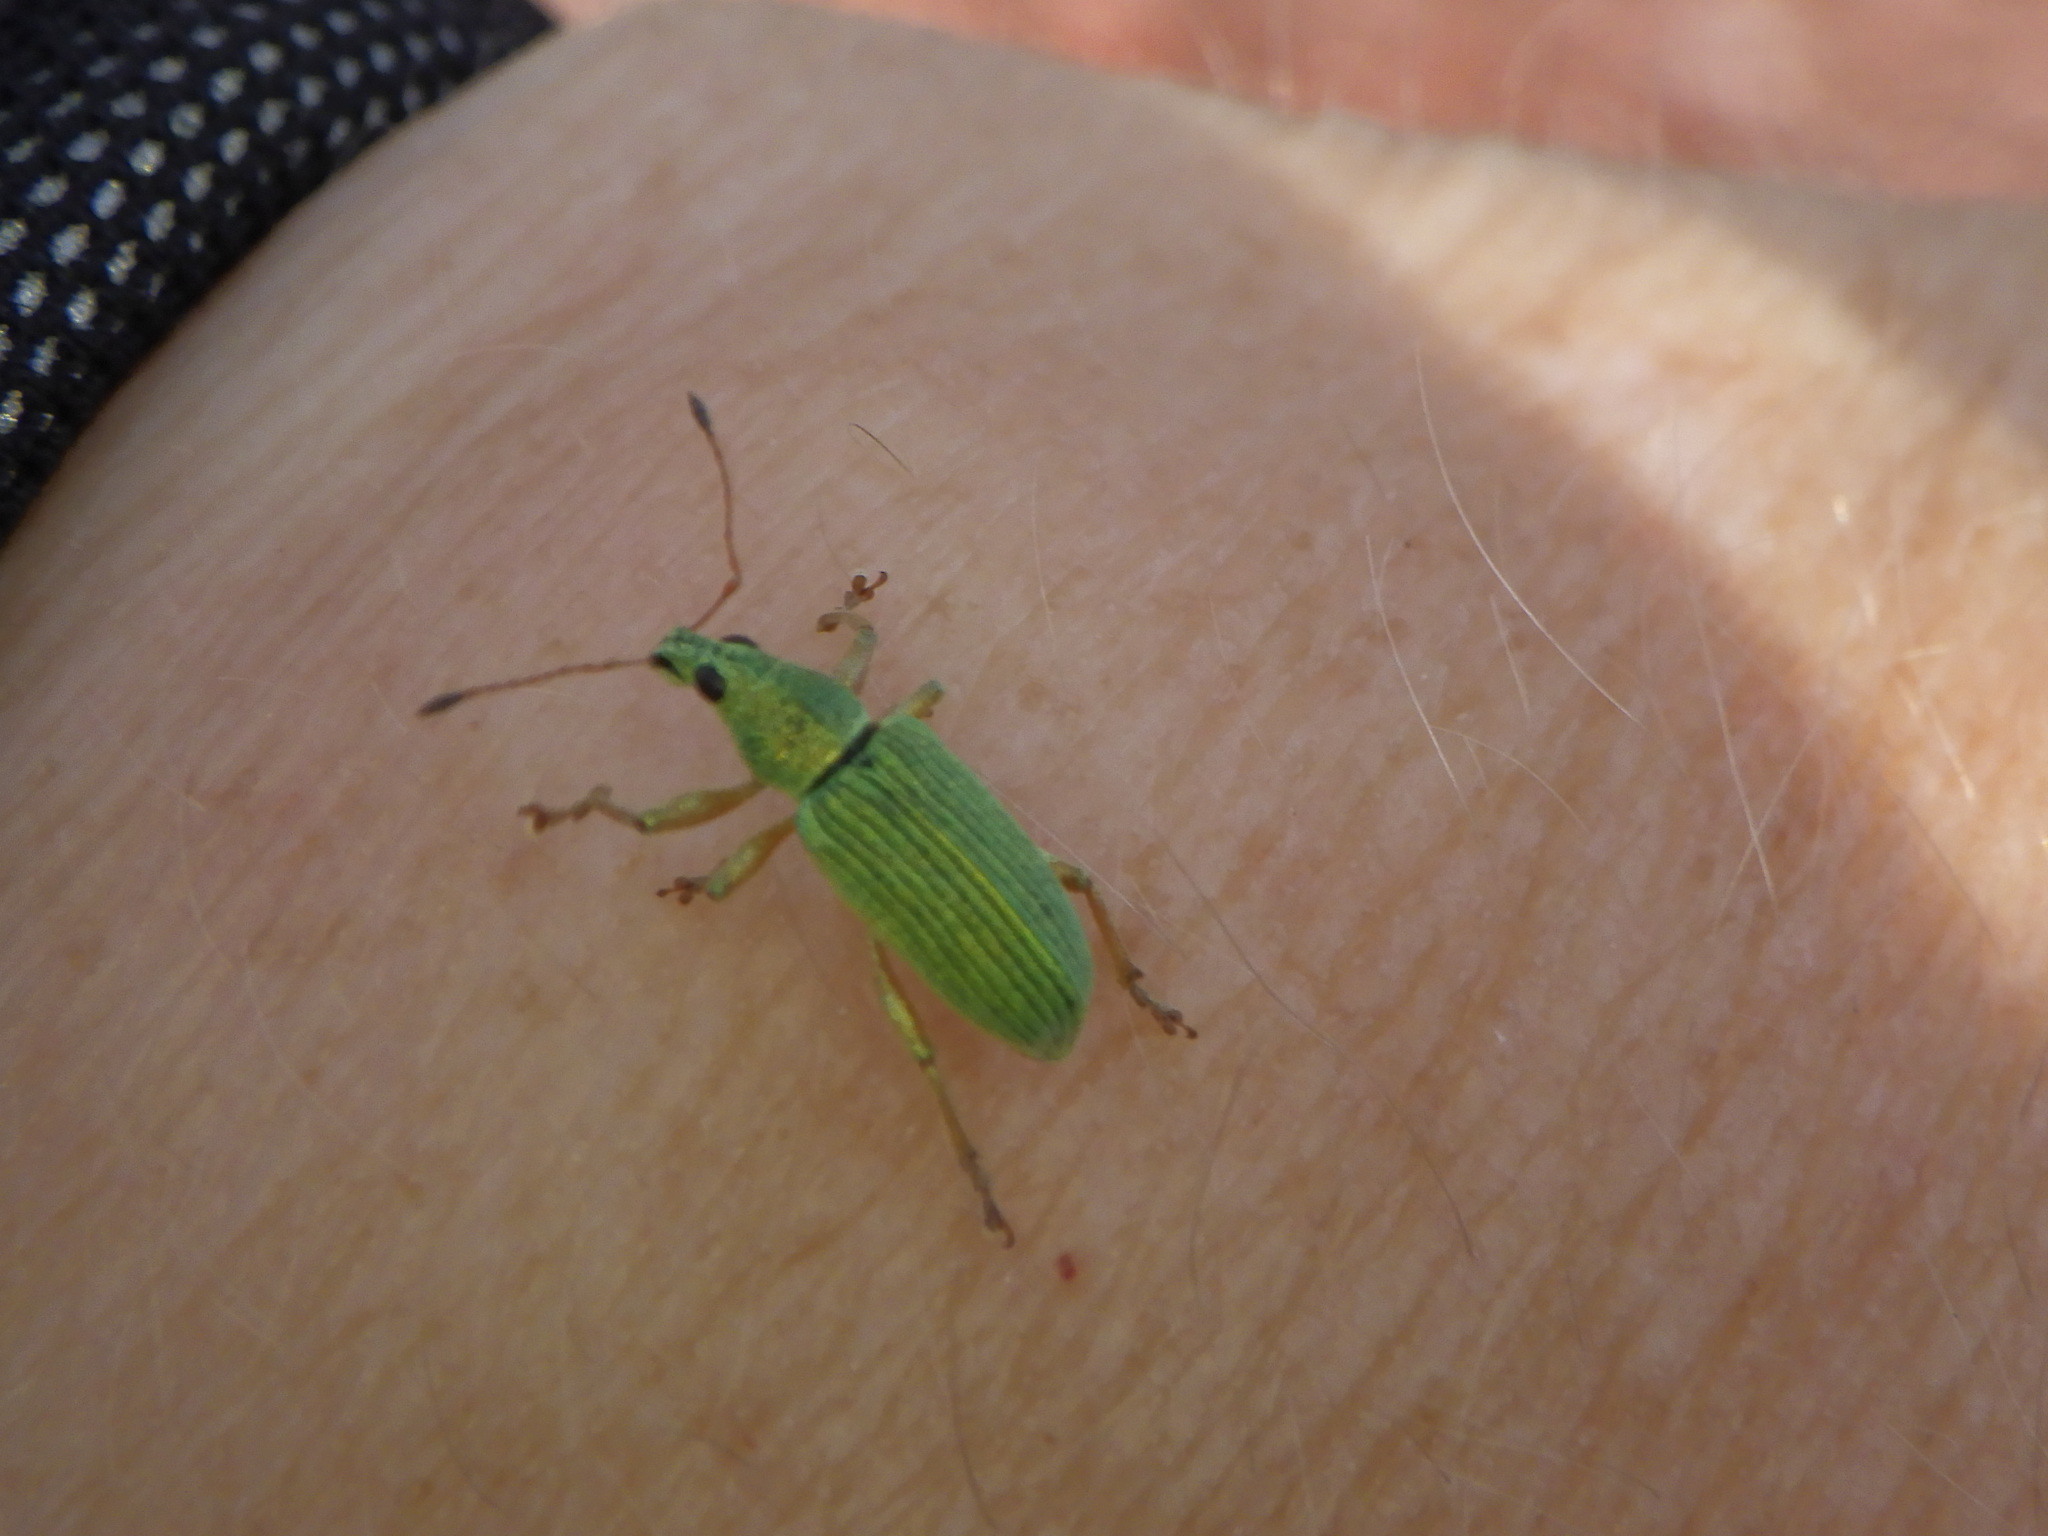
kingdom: Animalia
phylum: Arthropoda
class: Insecta
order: Coleoptera
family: Curculionidae
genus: Polydrusus
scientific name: Polydrusus formosus
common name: Weevil
